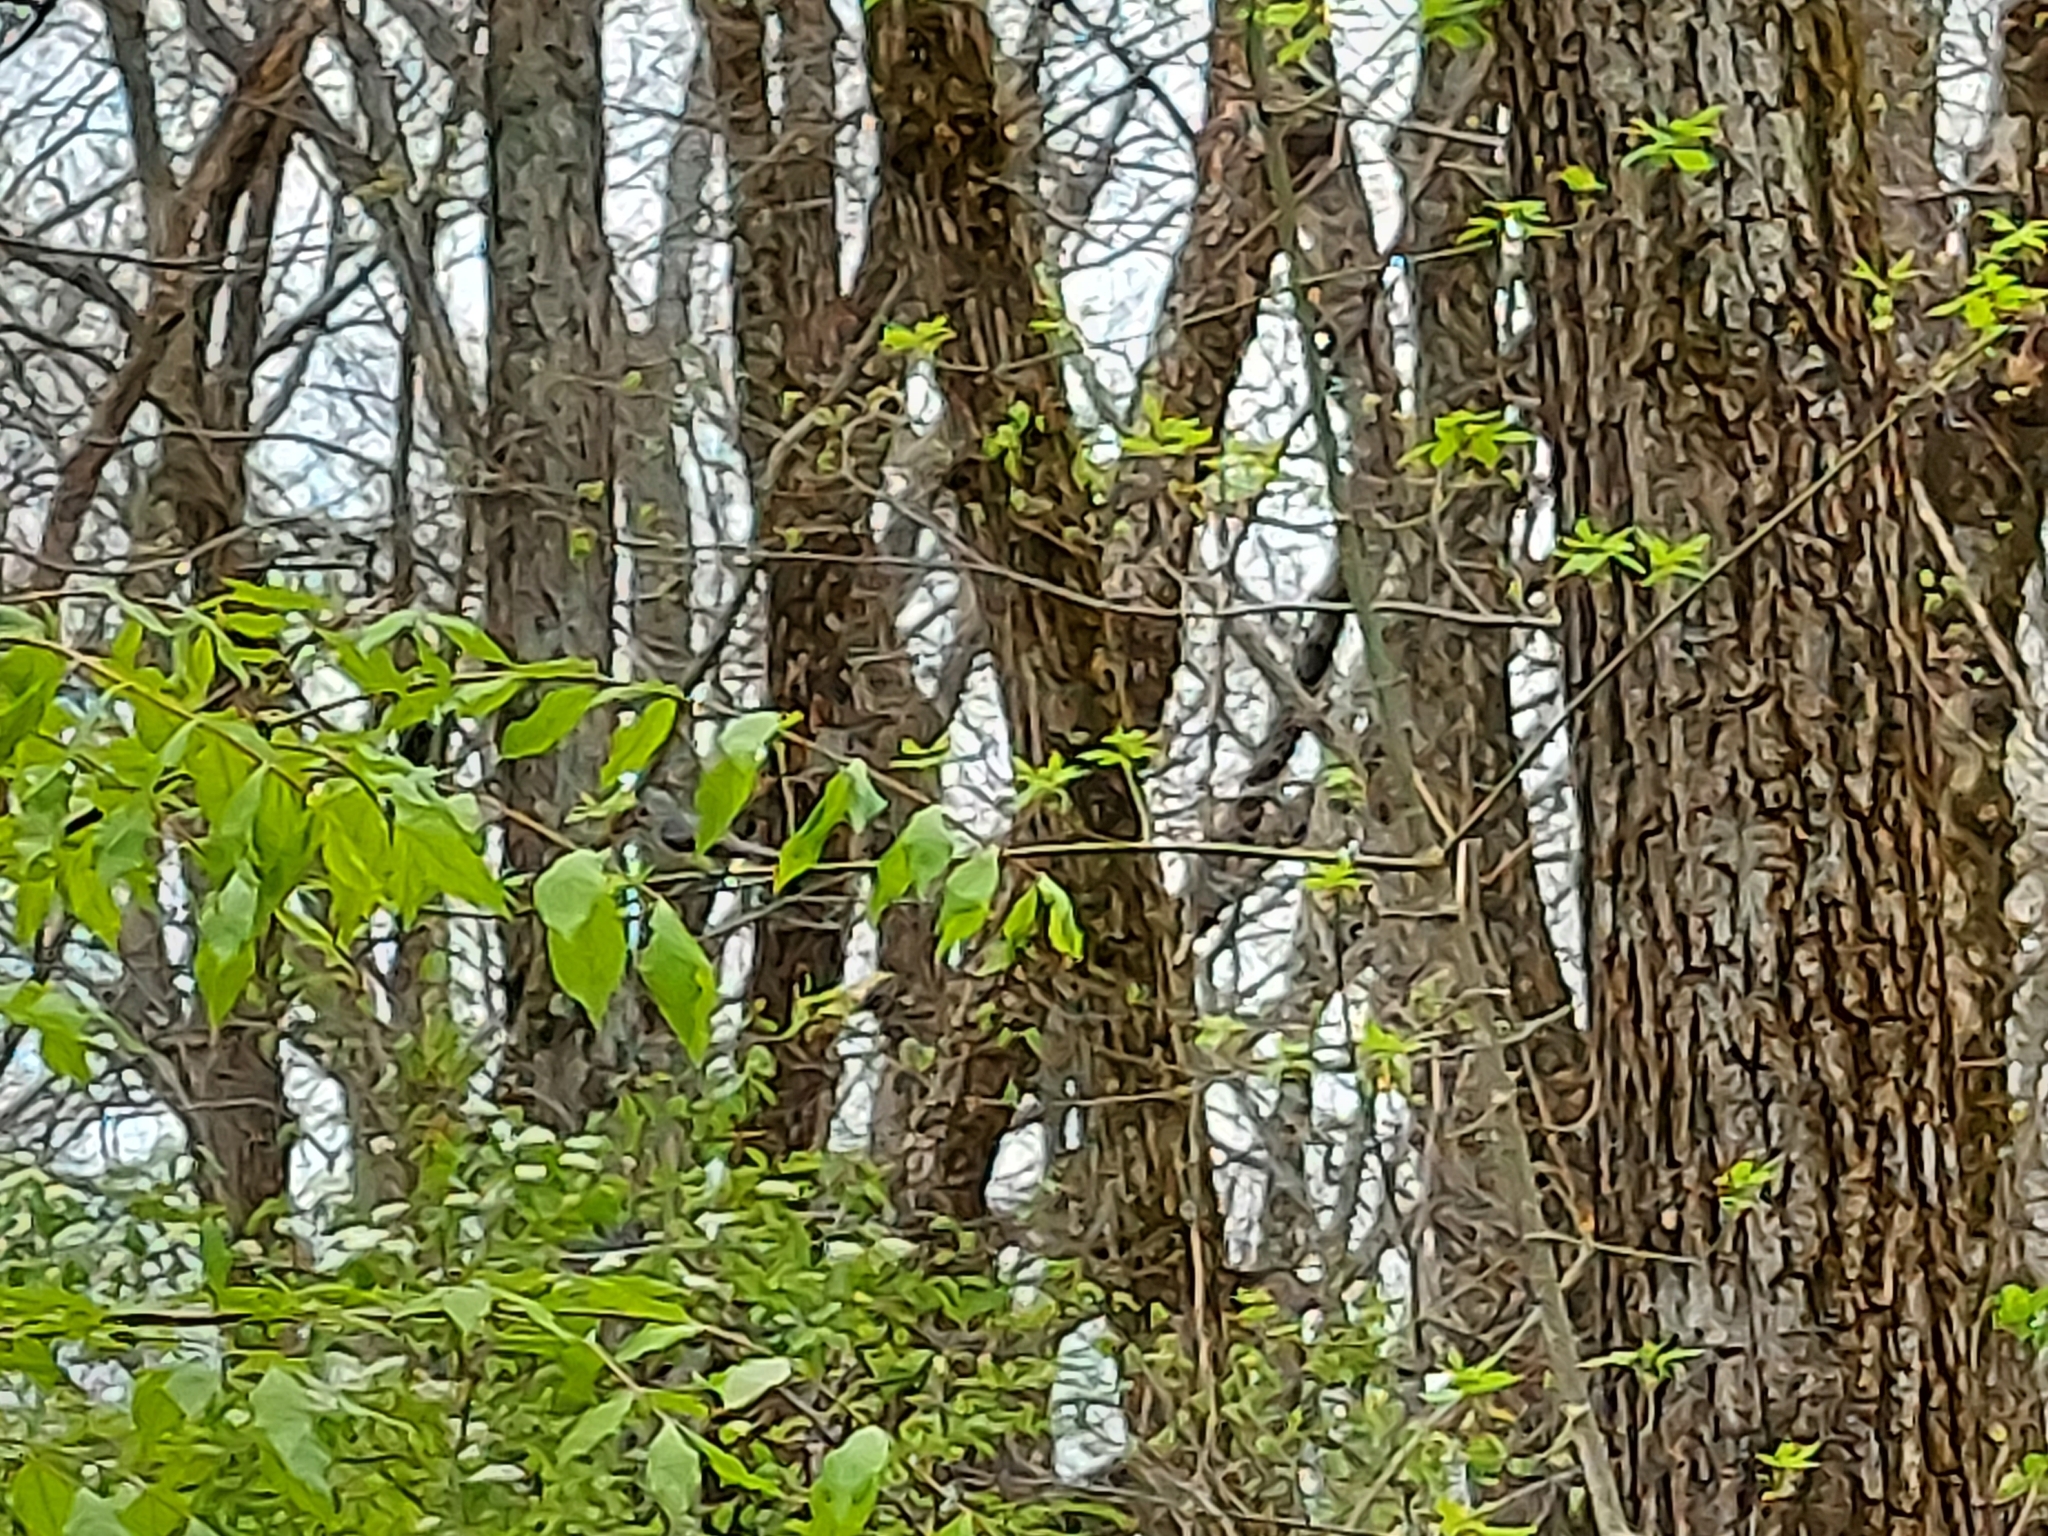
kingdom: Animalia
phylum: Chordata
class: Aves
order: Passeriformes
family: Paridae
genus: Baeolophus
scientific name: Baeolophus bicolor
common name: Tufted titmouse
